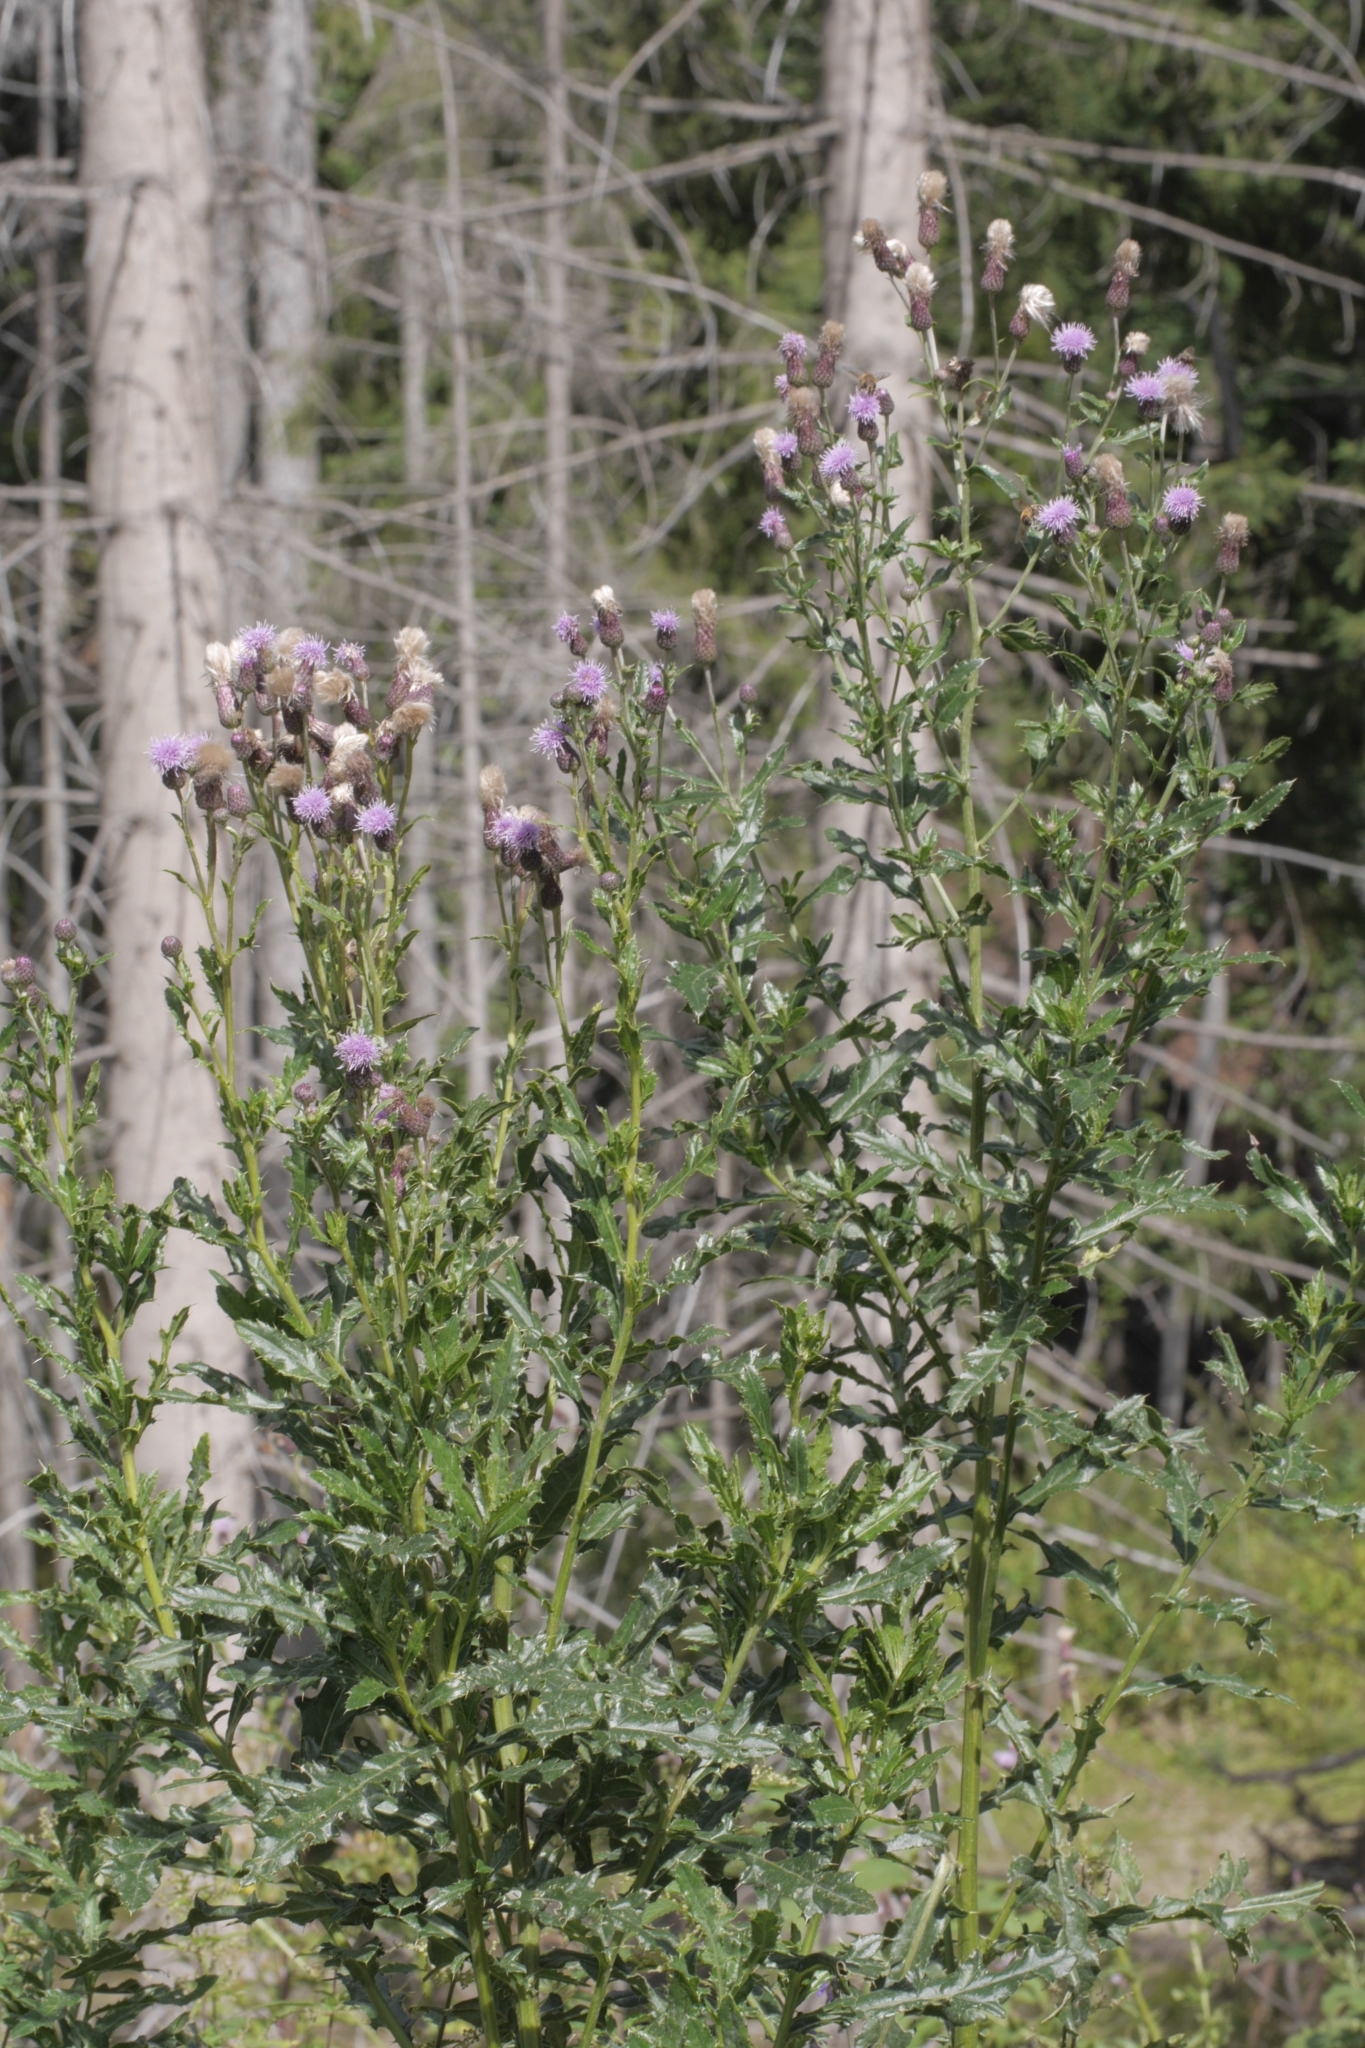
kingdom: Plantae
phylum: Tracheophyta
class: Magnoliopsida
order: Asterales
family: Asteraceae
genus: Cirsium
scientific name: Cirsium arvense
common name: Creeping thistle
